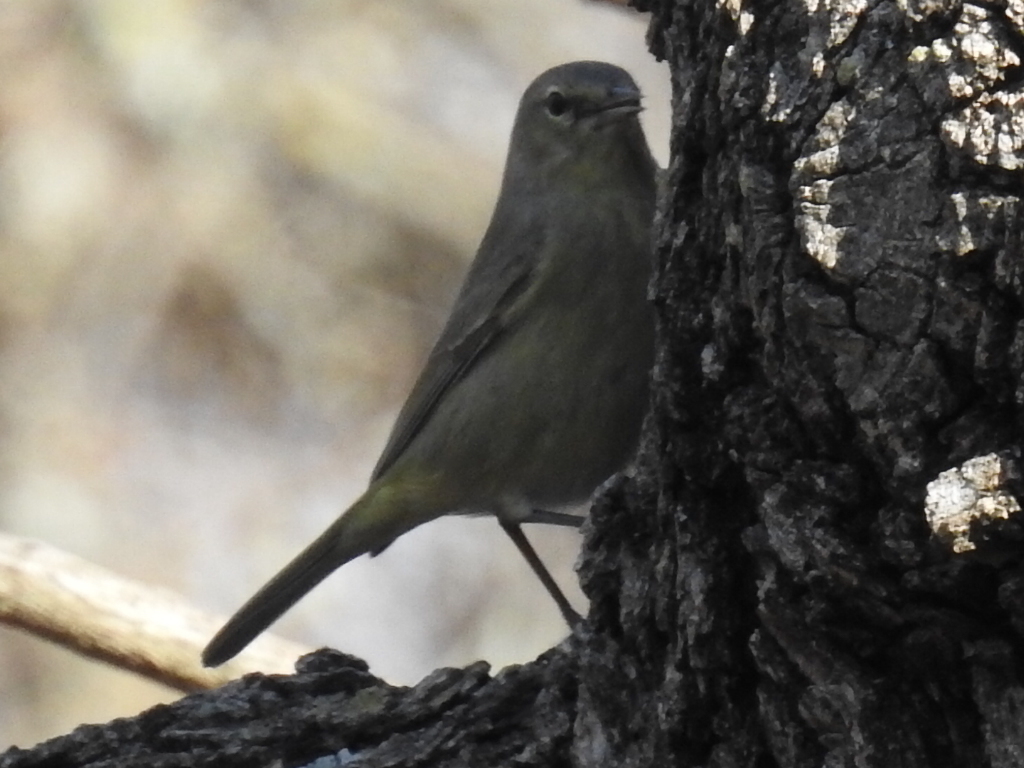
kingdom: Animalia
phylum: Chordata
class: Aves
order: Passeriformes
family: Parulidae
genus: Leiothlypis
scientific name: Leiothlypis celata
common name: Orange-crowned warbler
